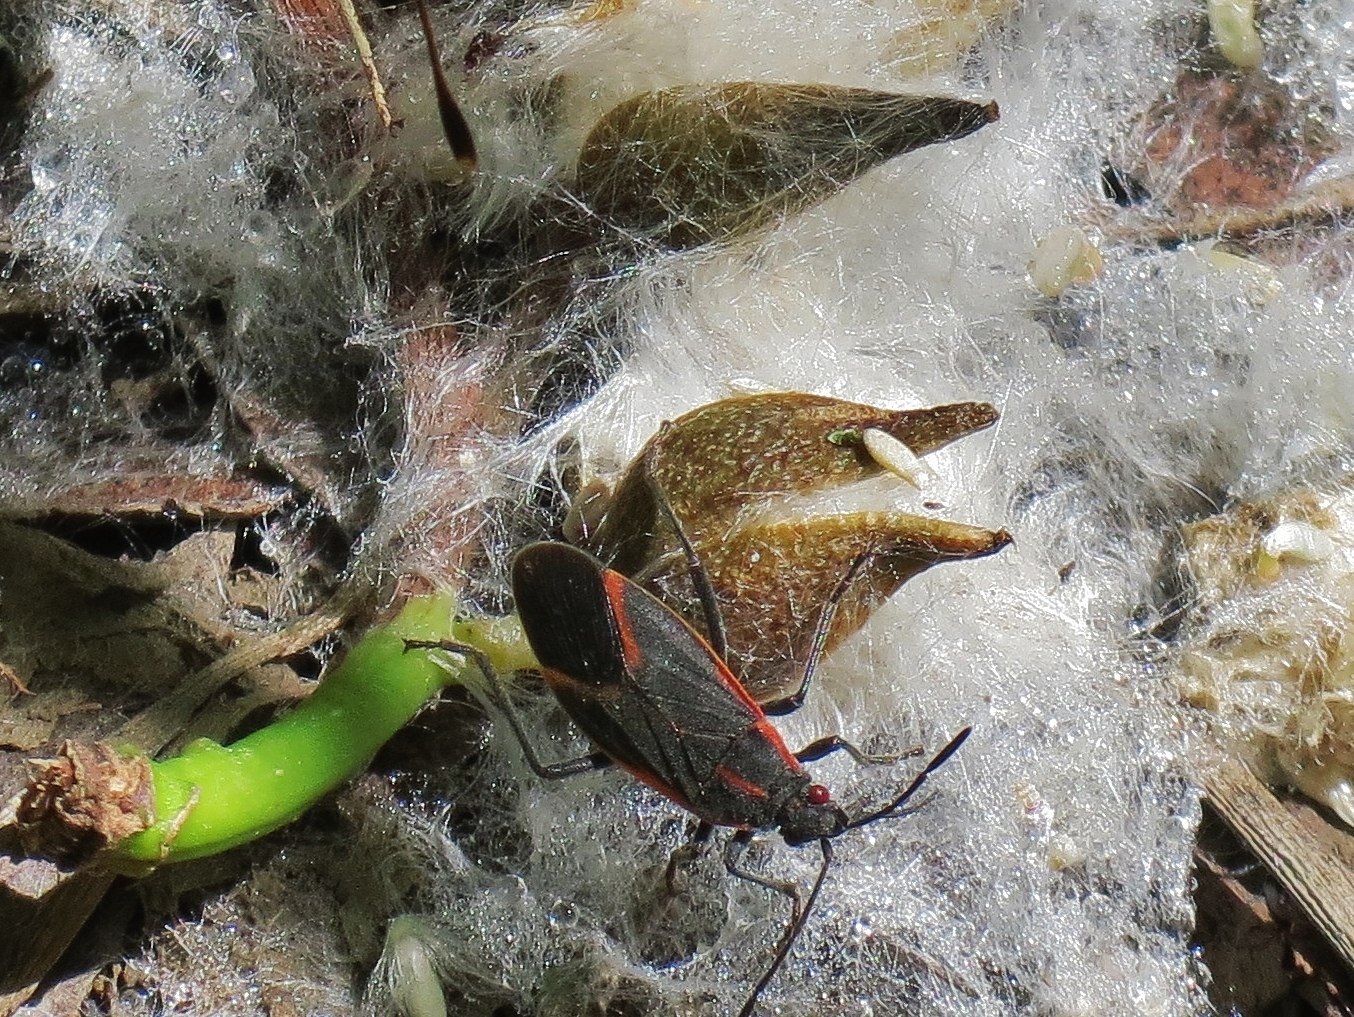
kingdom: Animalia
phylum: Arthropoda
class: Insecta
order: Hemiptera
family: Rhopalidae
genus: Boisea
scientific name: Boisea trivittata
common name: Boxelder bug
